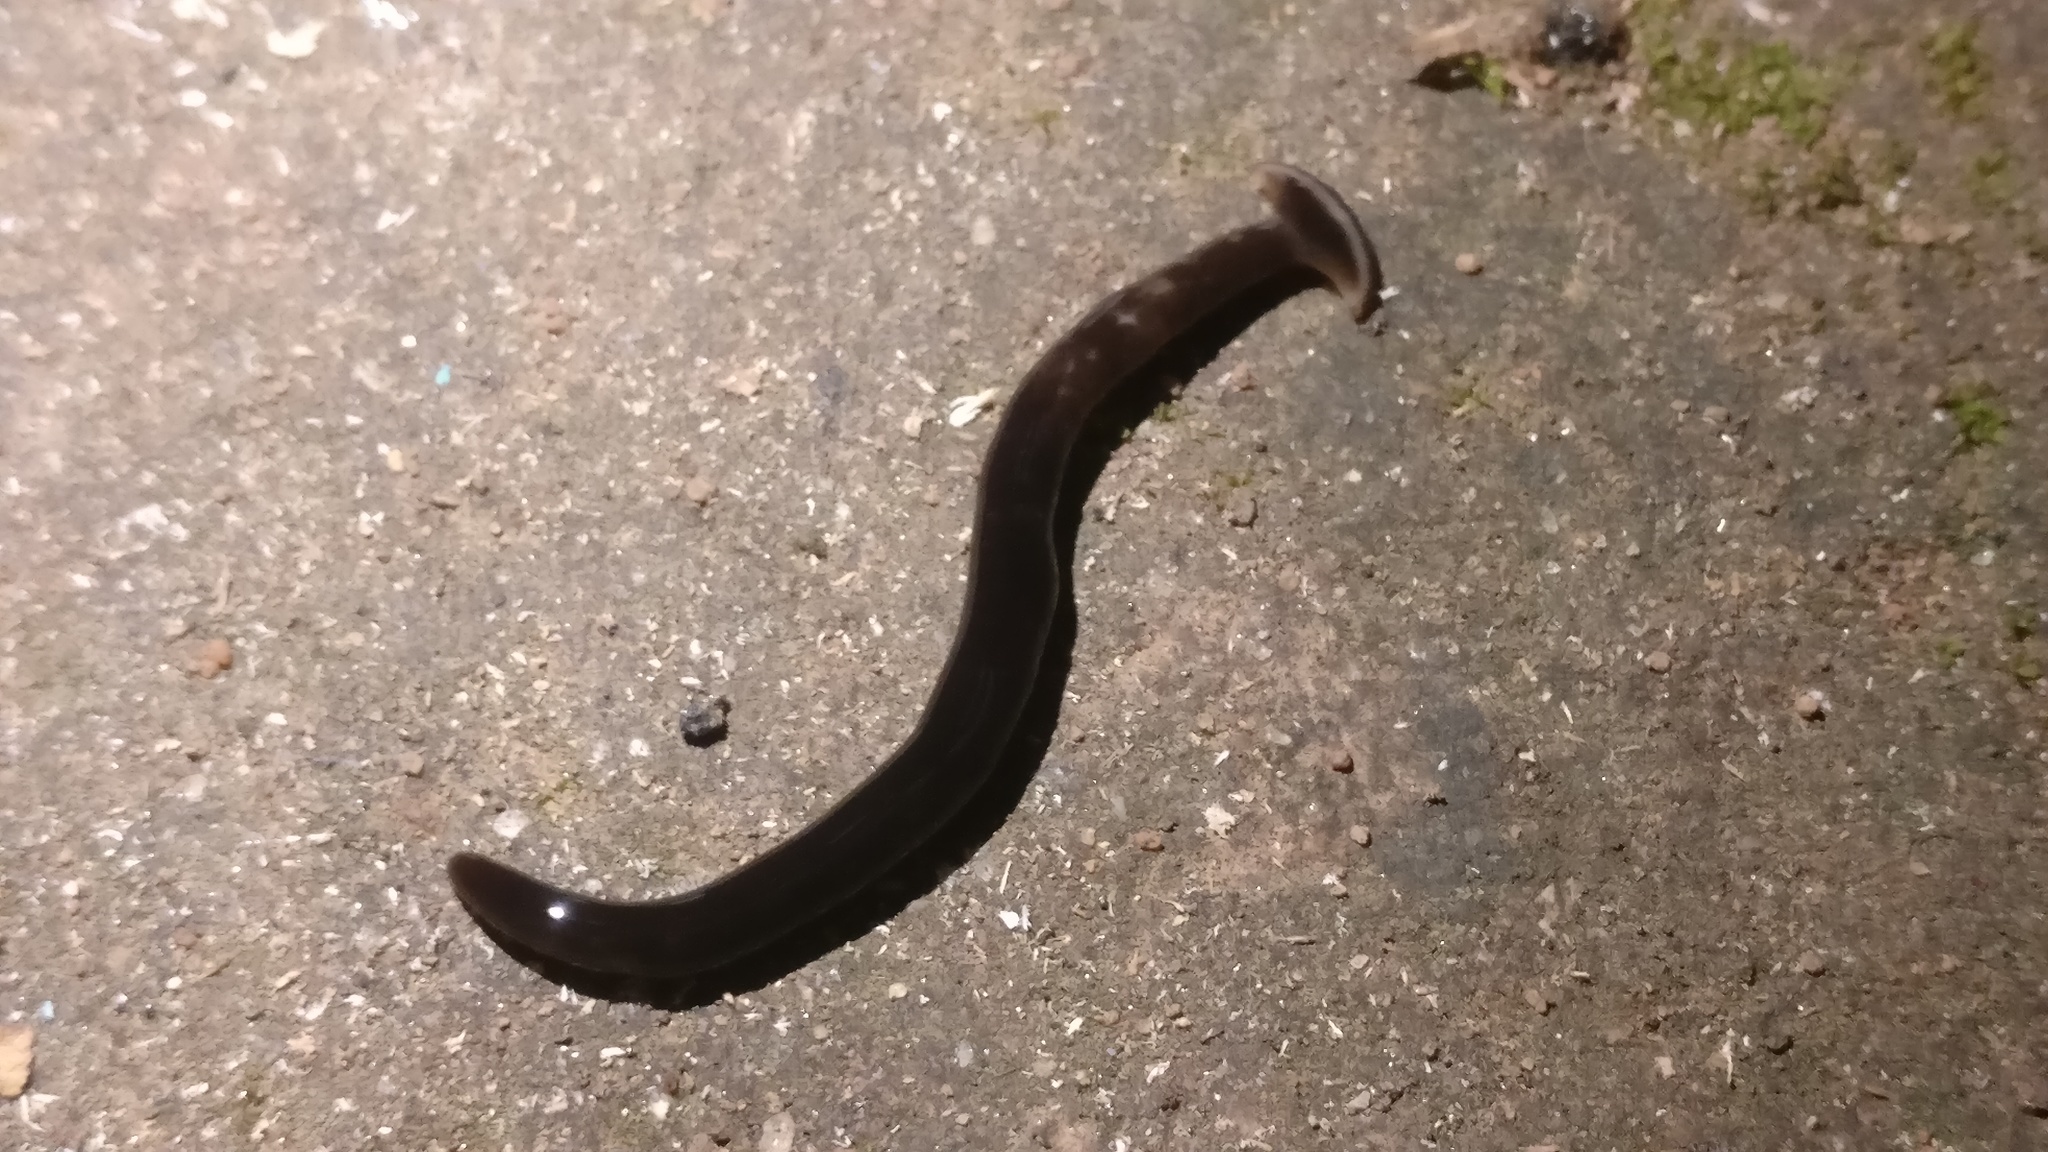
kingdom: Animalia
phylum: Platyhelminthes
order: Tricladida
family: Geoplanidae
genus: Bipalium
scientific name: Bipalium univittatum
